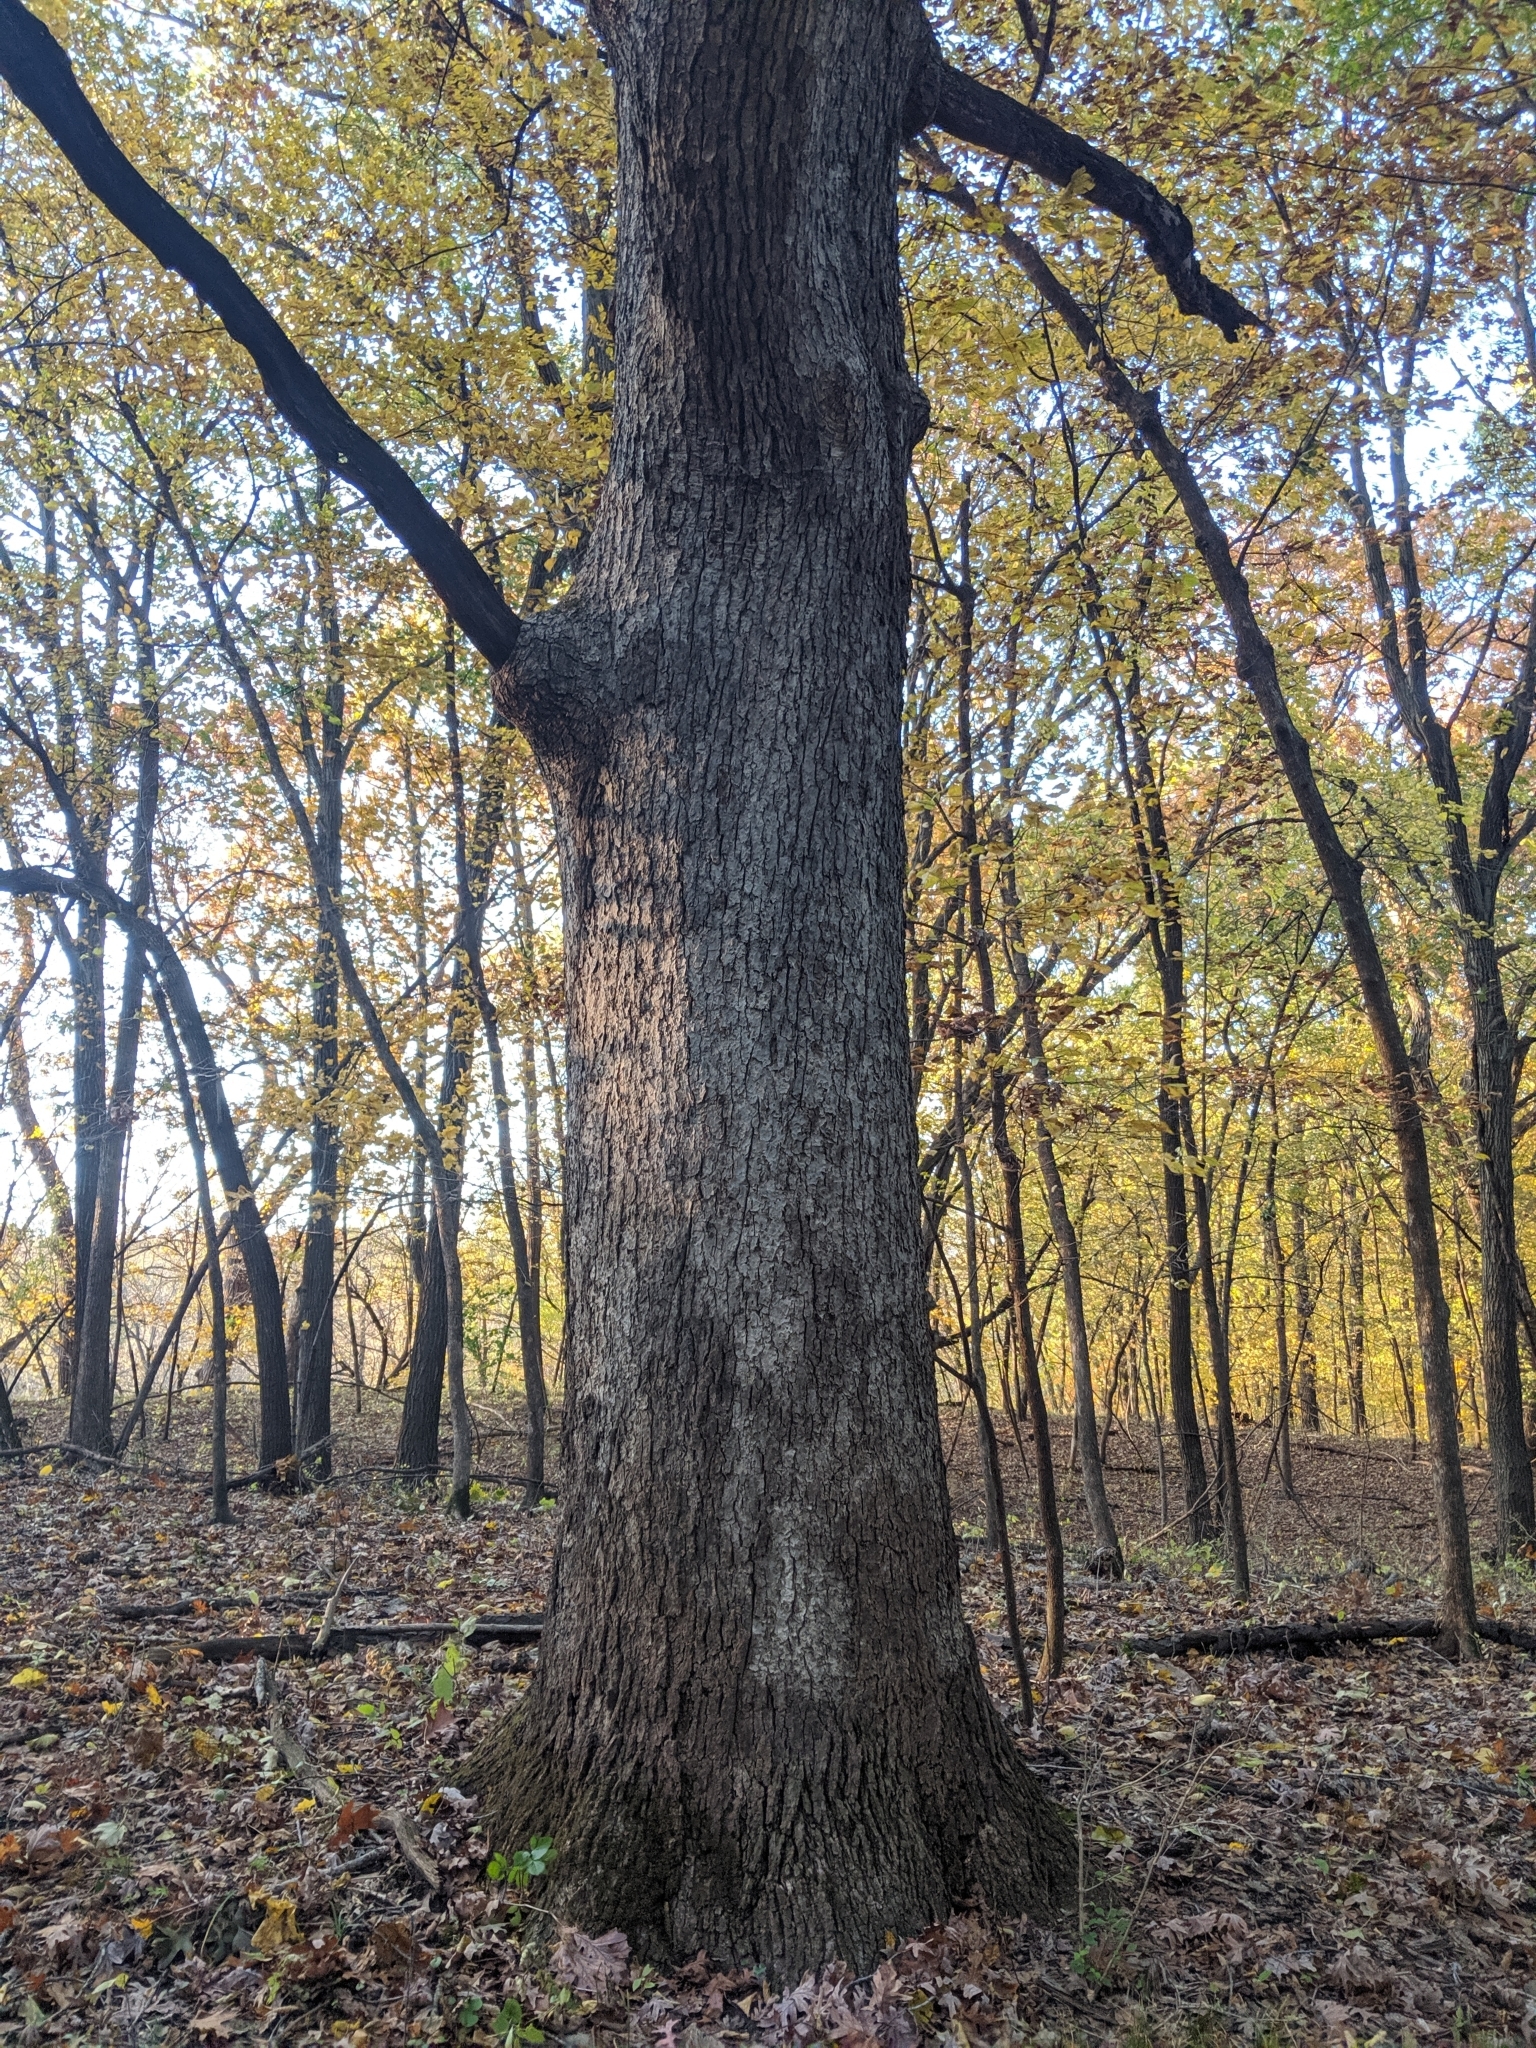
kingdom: Plantae
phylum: Tracheophyta
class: Magnoliopsida
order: Fagales
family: Fagaceae
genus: Quercus
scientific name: Quercus alba
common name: White oak
